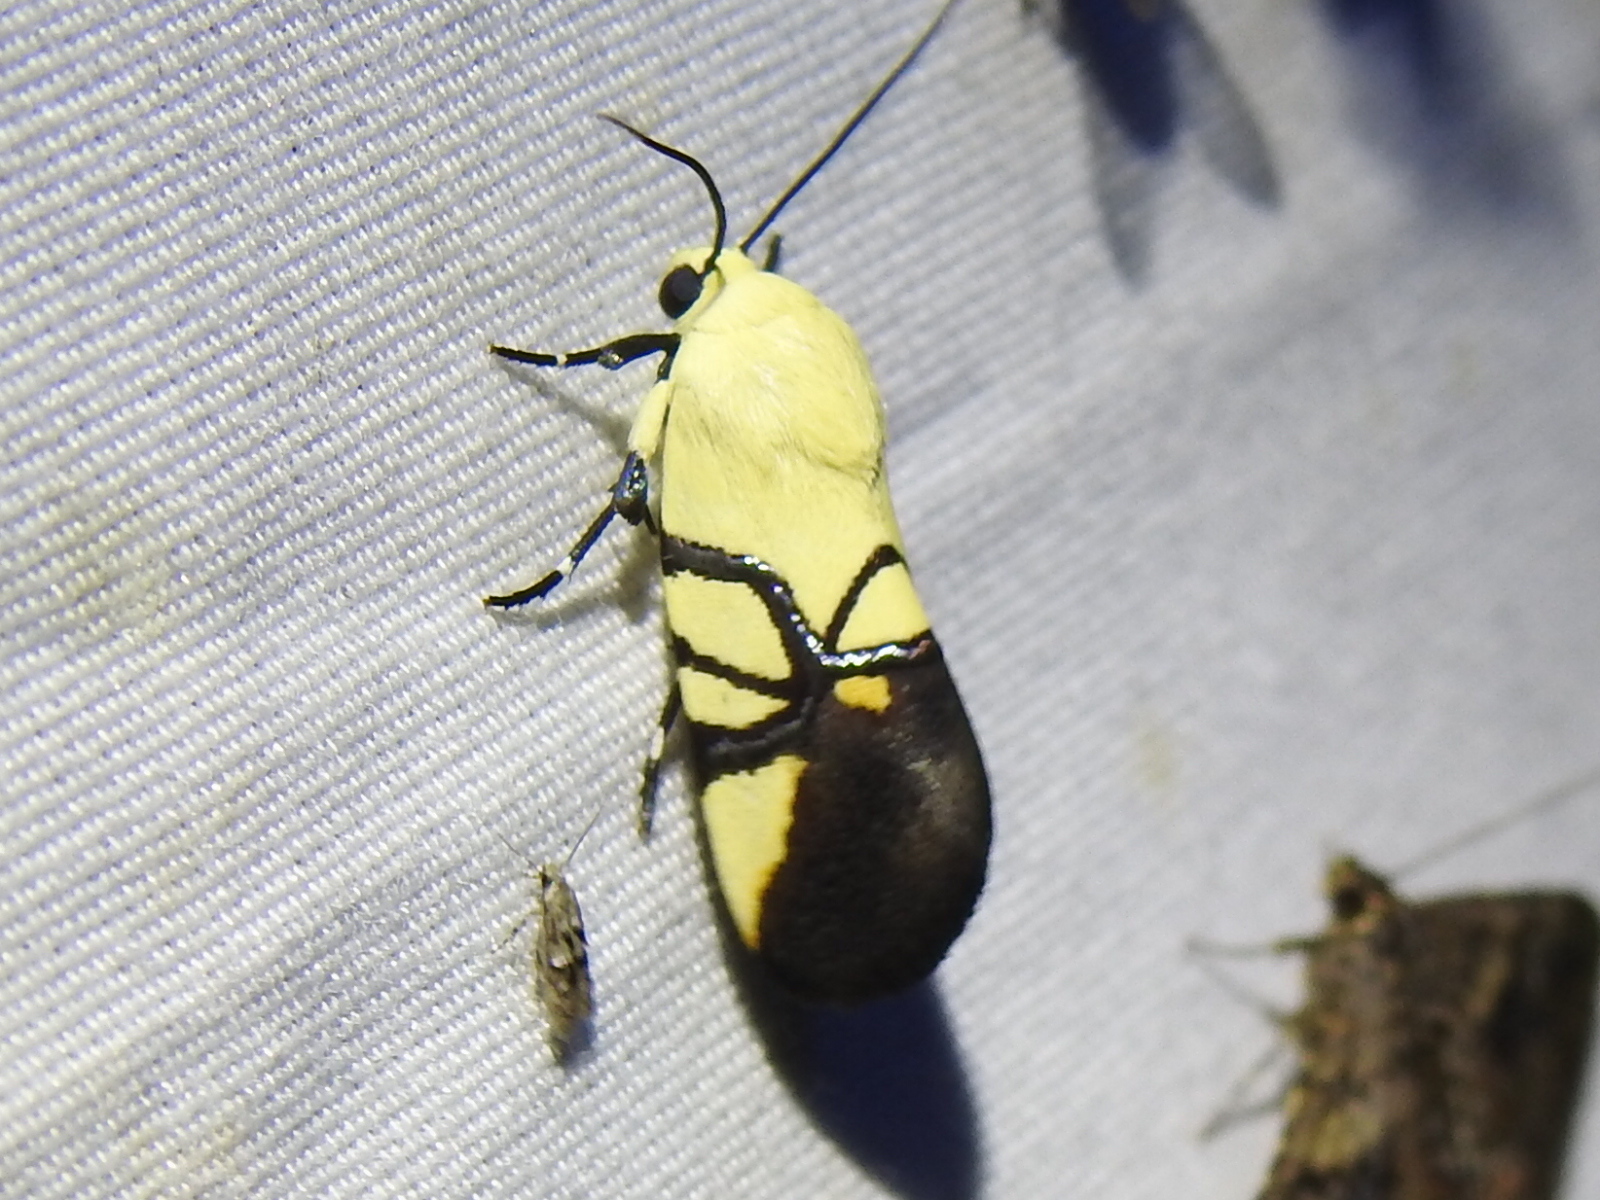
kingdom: Animalia
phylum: Arthropoda
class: Insecta
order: Lepidoptera
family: Noctuidae
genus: Eusceptis
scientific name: Eusceptis flavifrimbriata
